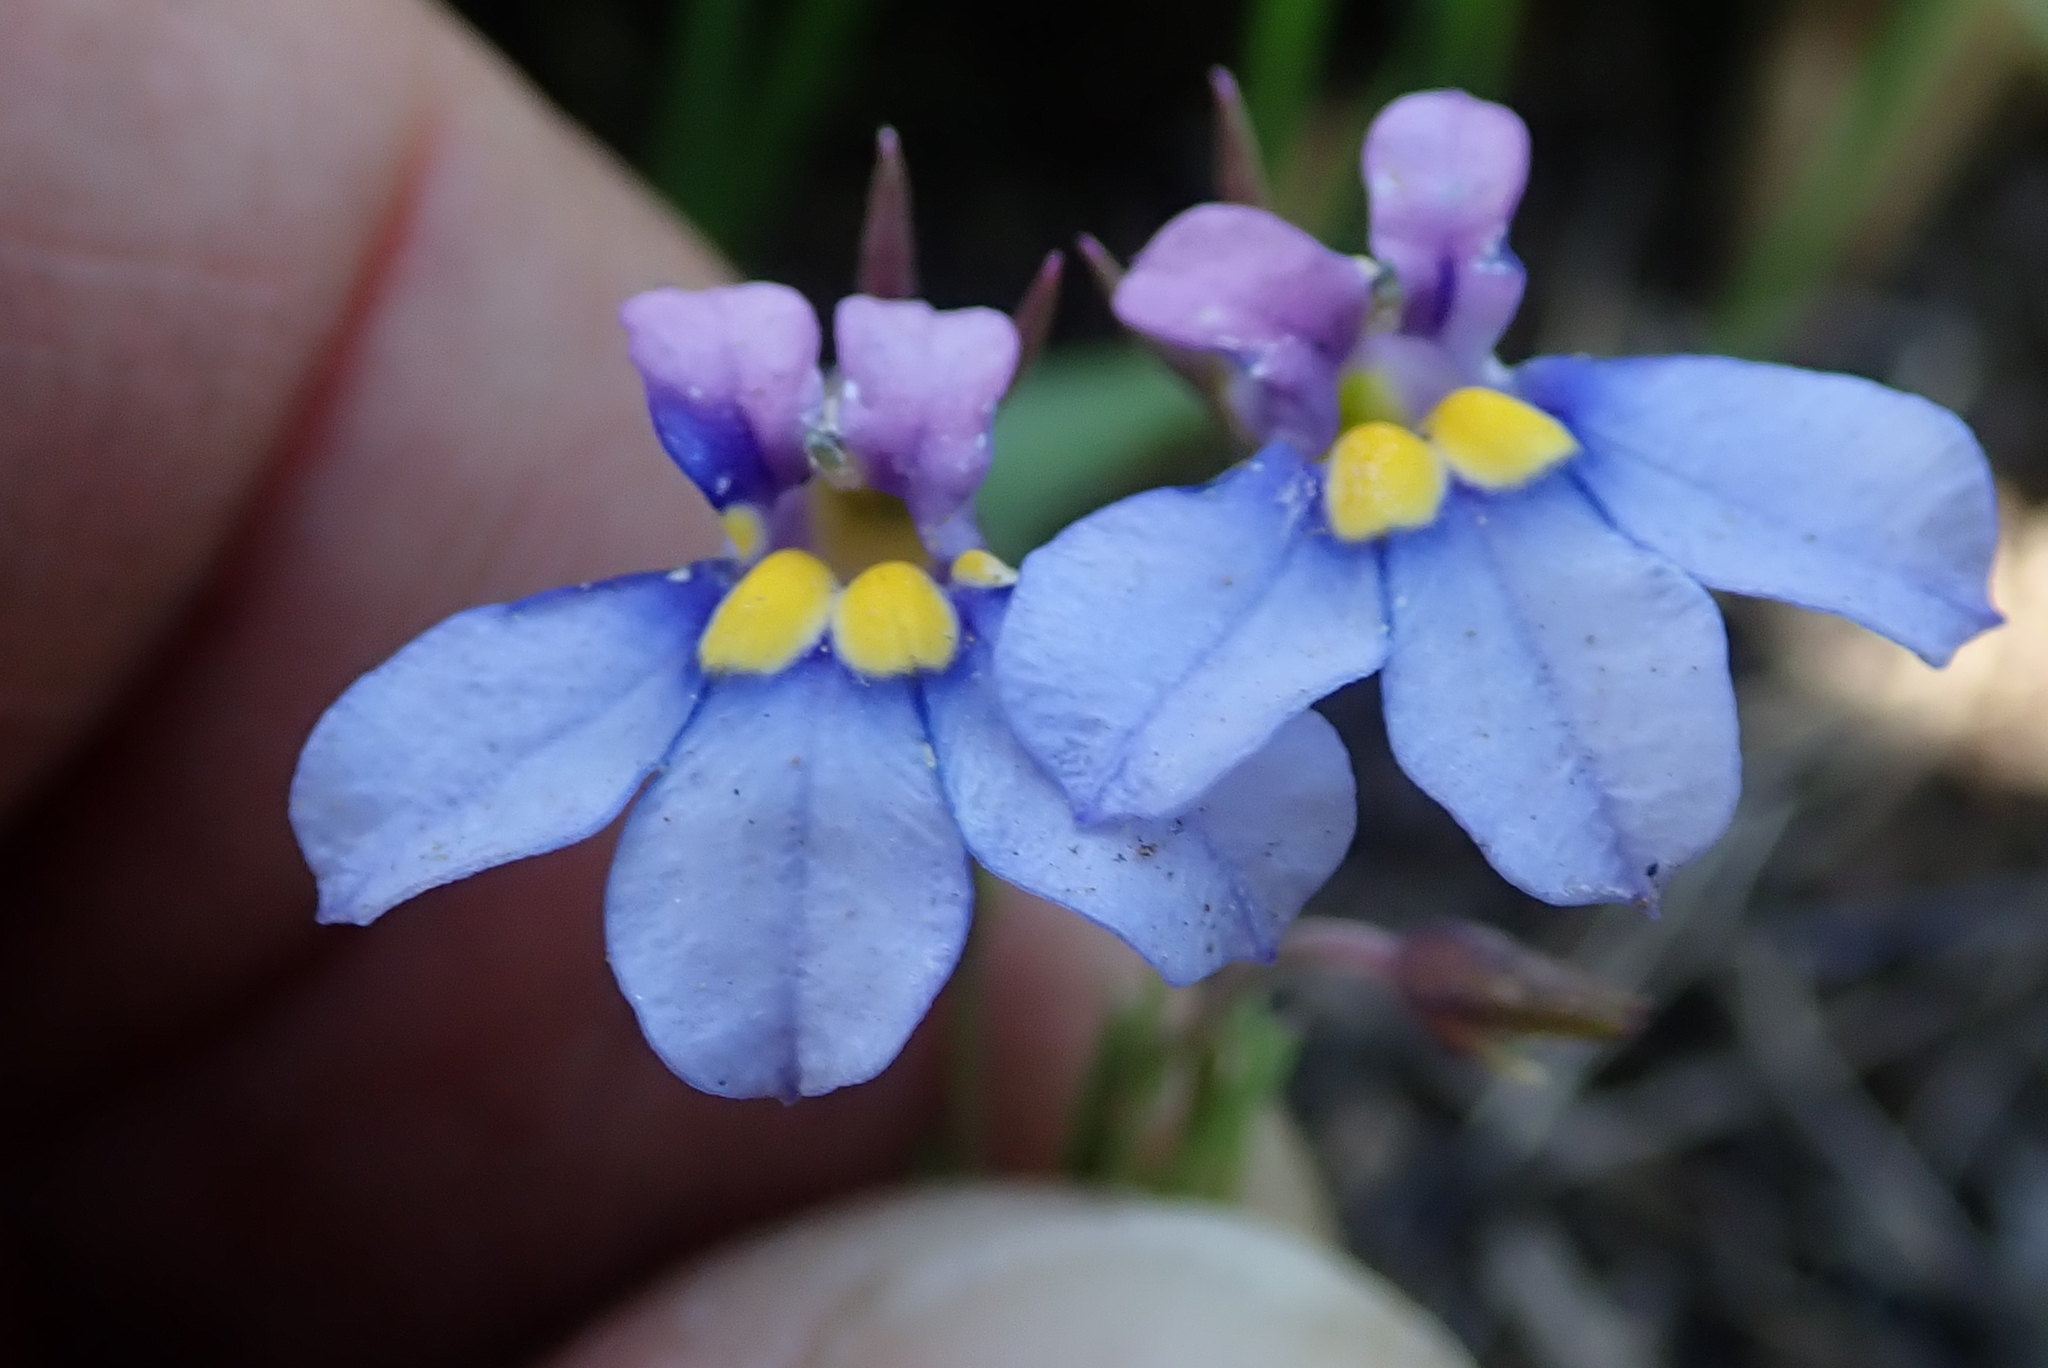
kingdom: Plantae
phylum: Tracheophyta
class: Magnoliopsida
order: Asterales
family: Campanulaceae
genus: Monopsis
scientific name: Monopsis decipiens
